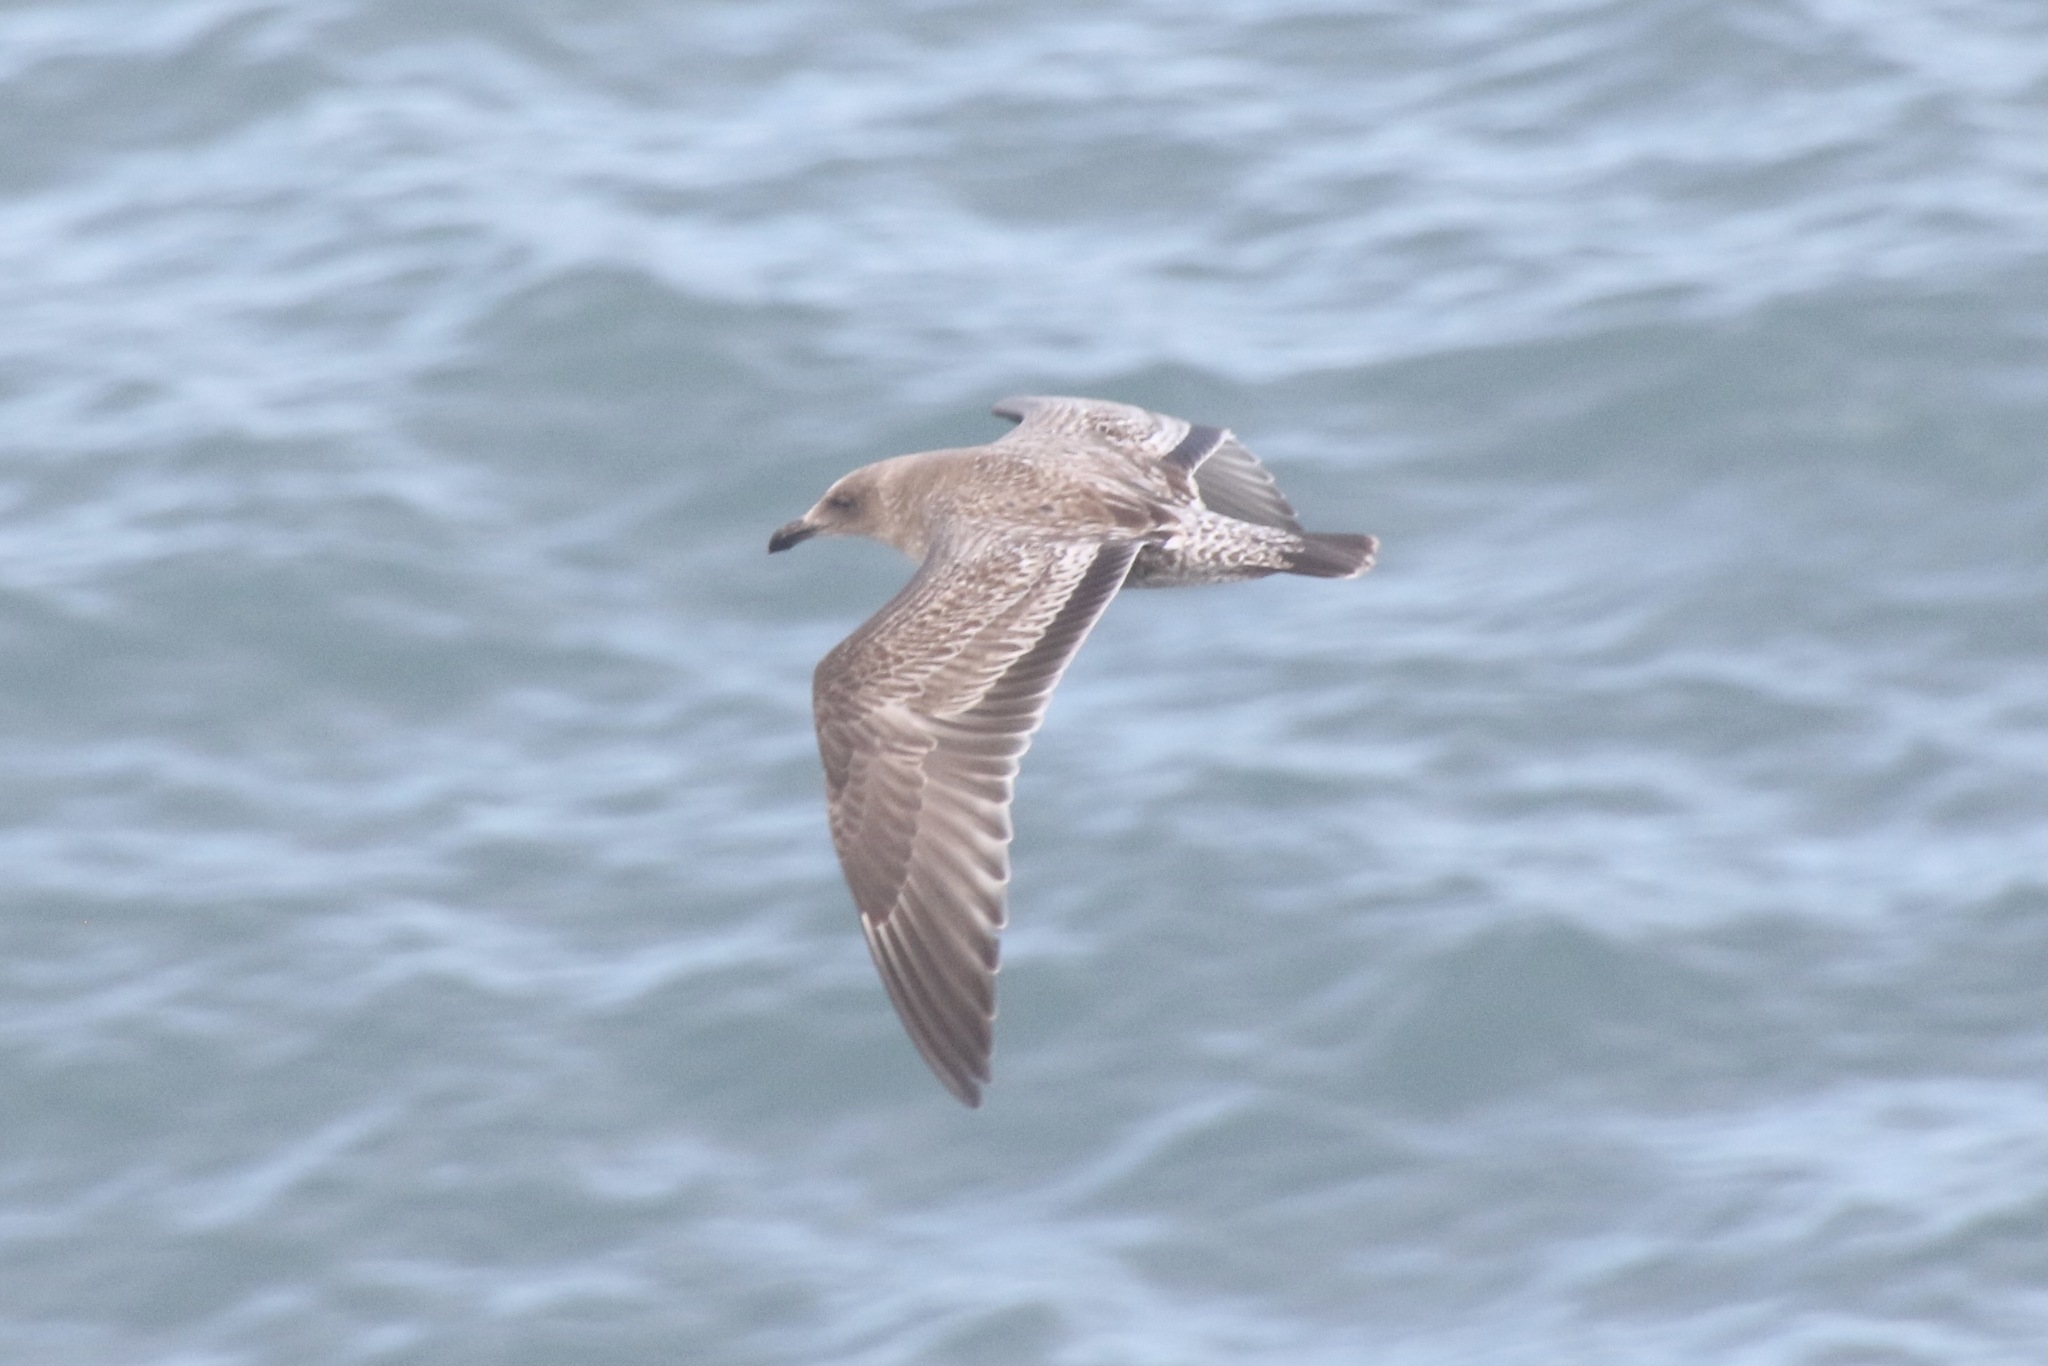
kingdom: Animalia
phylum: Chordata
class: Aves
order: Charadriiformes
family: Laridae
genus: Larus
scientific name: Larus occidentalis
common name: Western gull
